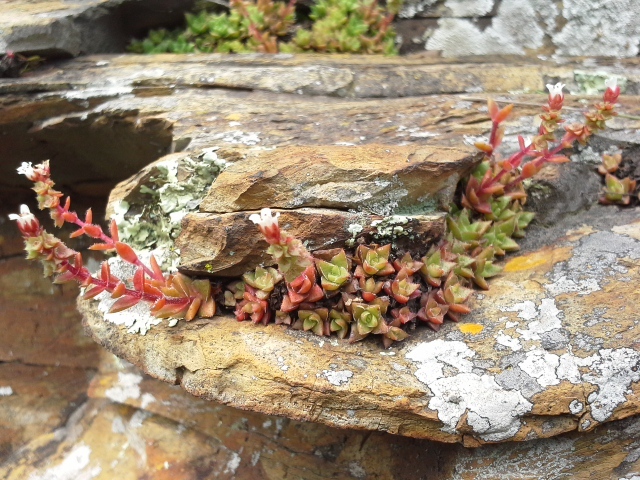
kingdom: Plantae
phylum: Tracheophyta
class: Magnoliopsida
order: Saxifragales
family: Crassulaceae
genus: Crassula
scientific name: Crassula setulosa
